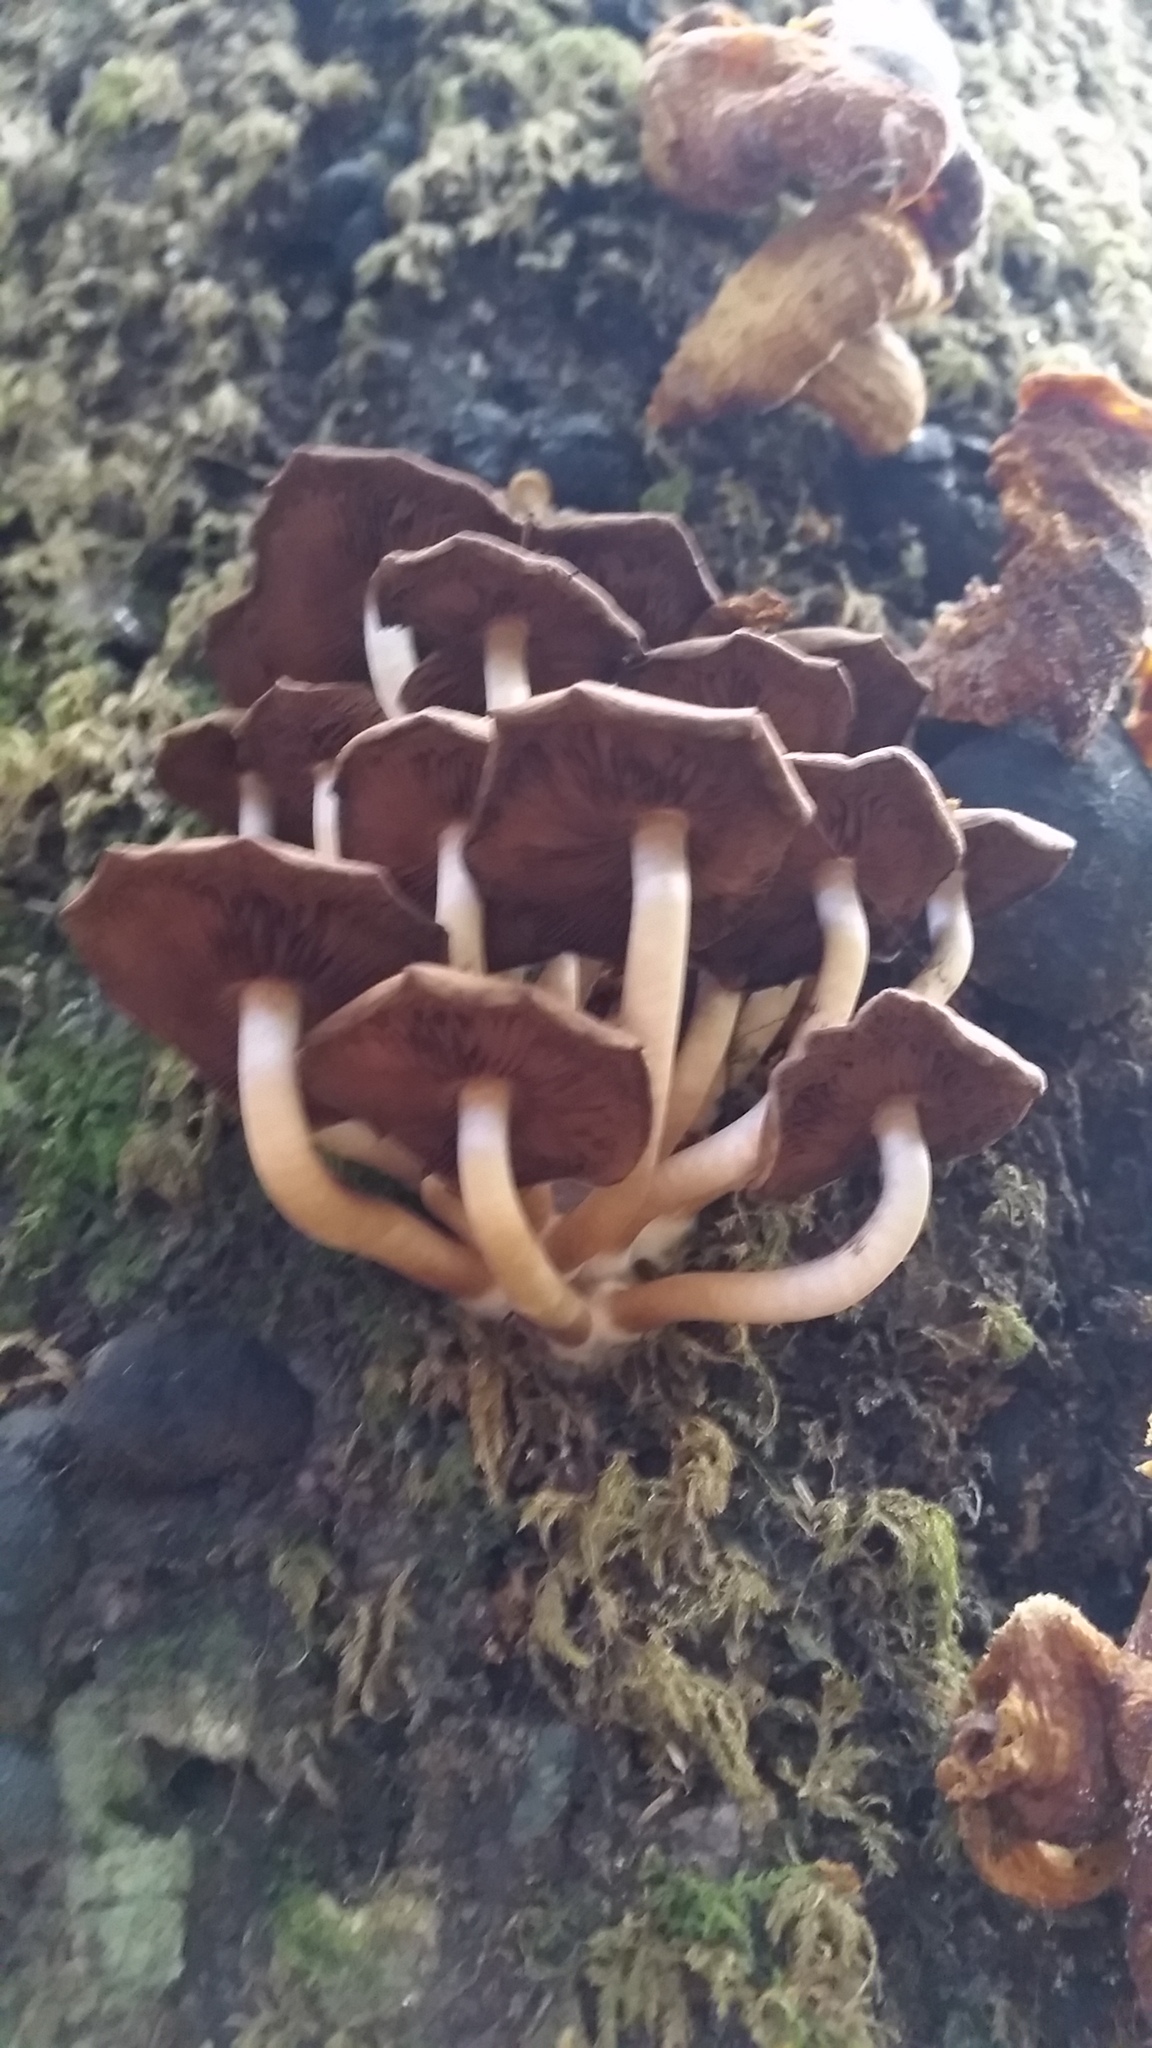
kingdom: Fungi
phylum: Basidiomycota
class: Agaricomycetes
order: Agaricales
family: Psathyrellaceae
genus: Psathyrella
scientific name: Psathyrella piluliformis
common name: Common stump brittlestem
